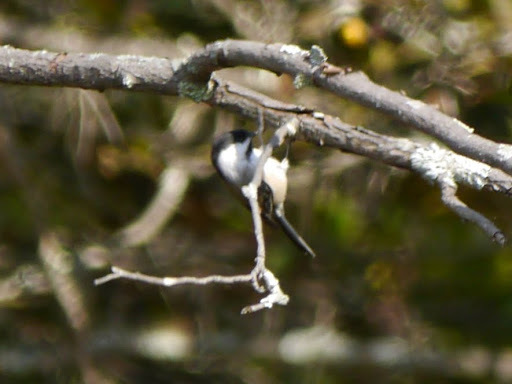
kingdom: Animalia
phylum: Chordata
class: Aves
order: Passeriformes
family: Paridae
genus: Poecile
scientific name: Poecile atricapillus
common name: Black-capped chickadee
